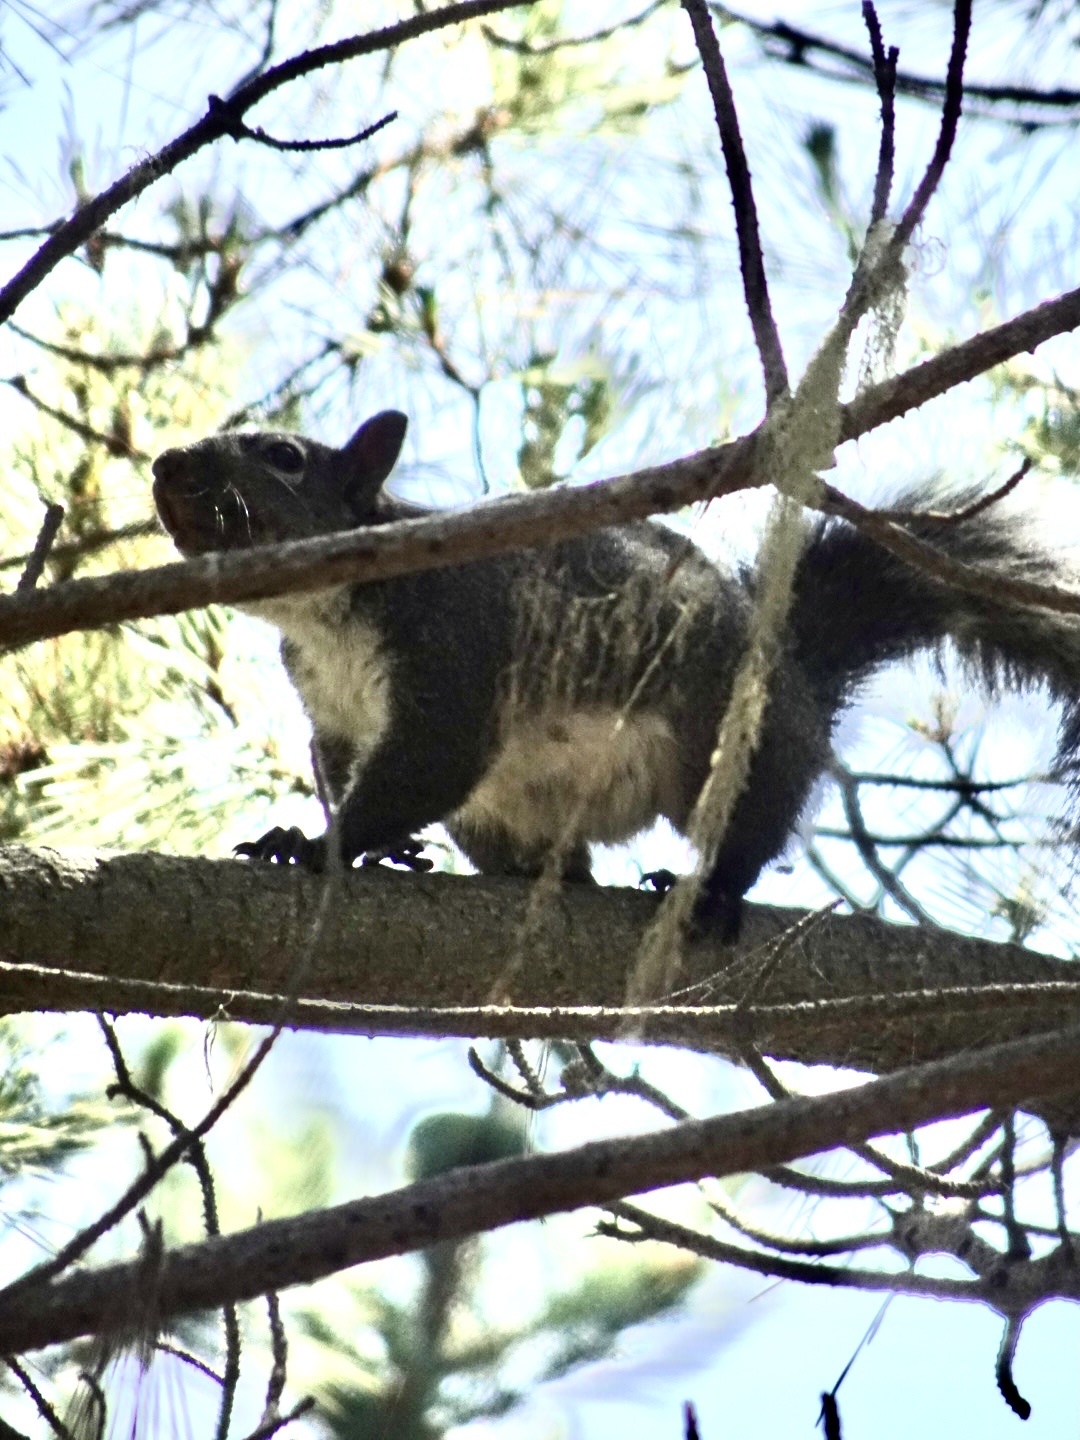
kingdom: Animalia
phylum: Chordata
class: Mammalia
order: Rodentia
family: Sciuridae
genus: Sciurus
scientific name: Sciurus griseus
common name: Western gray squirrel
